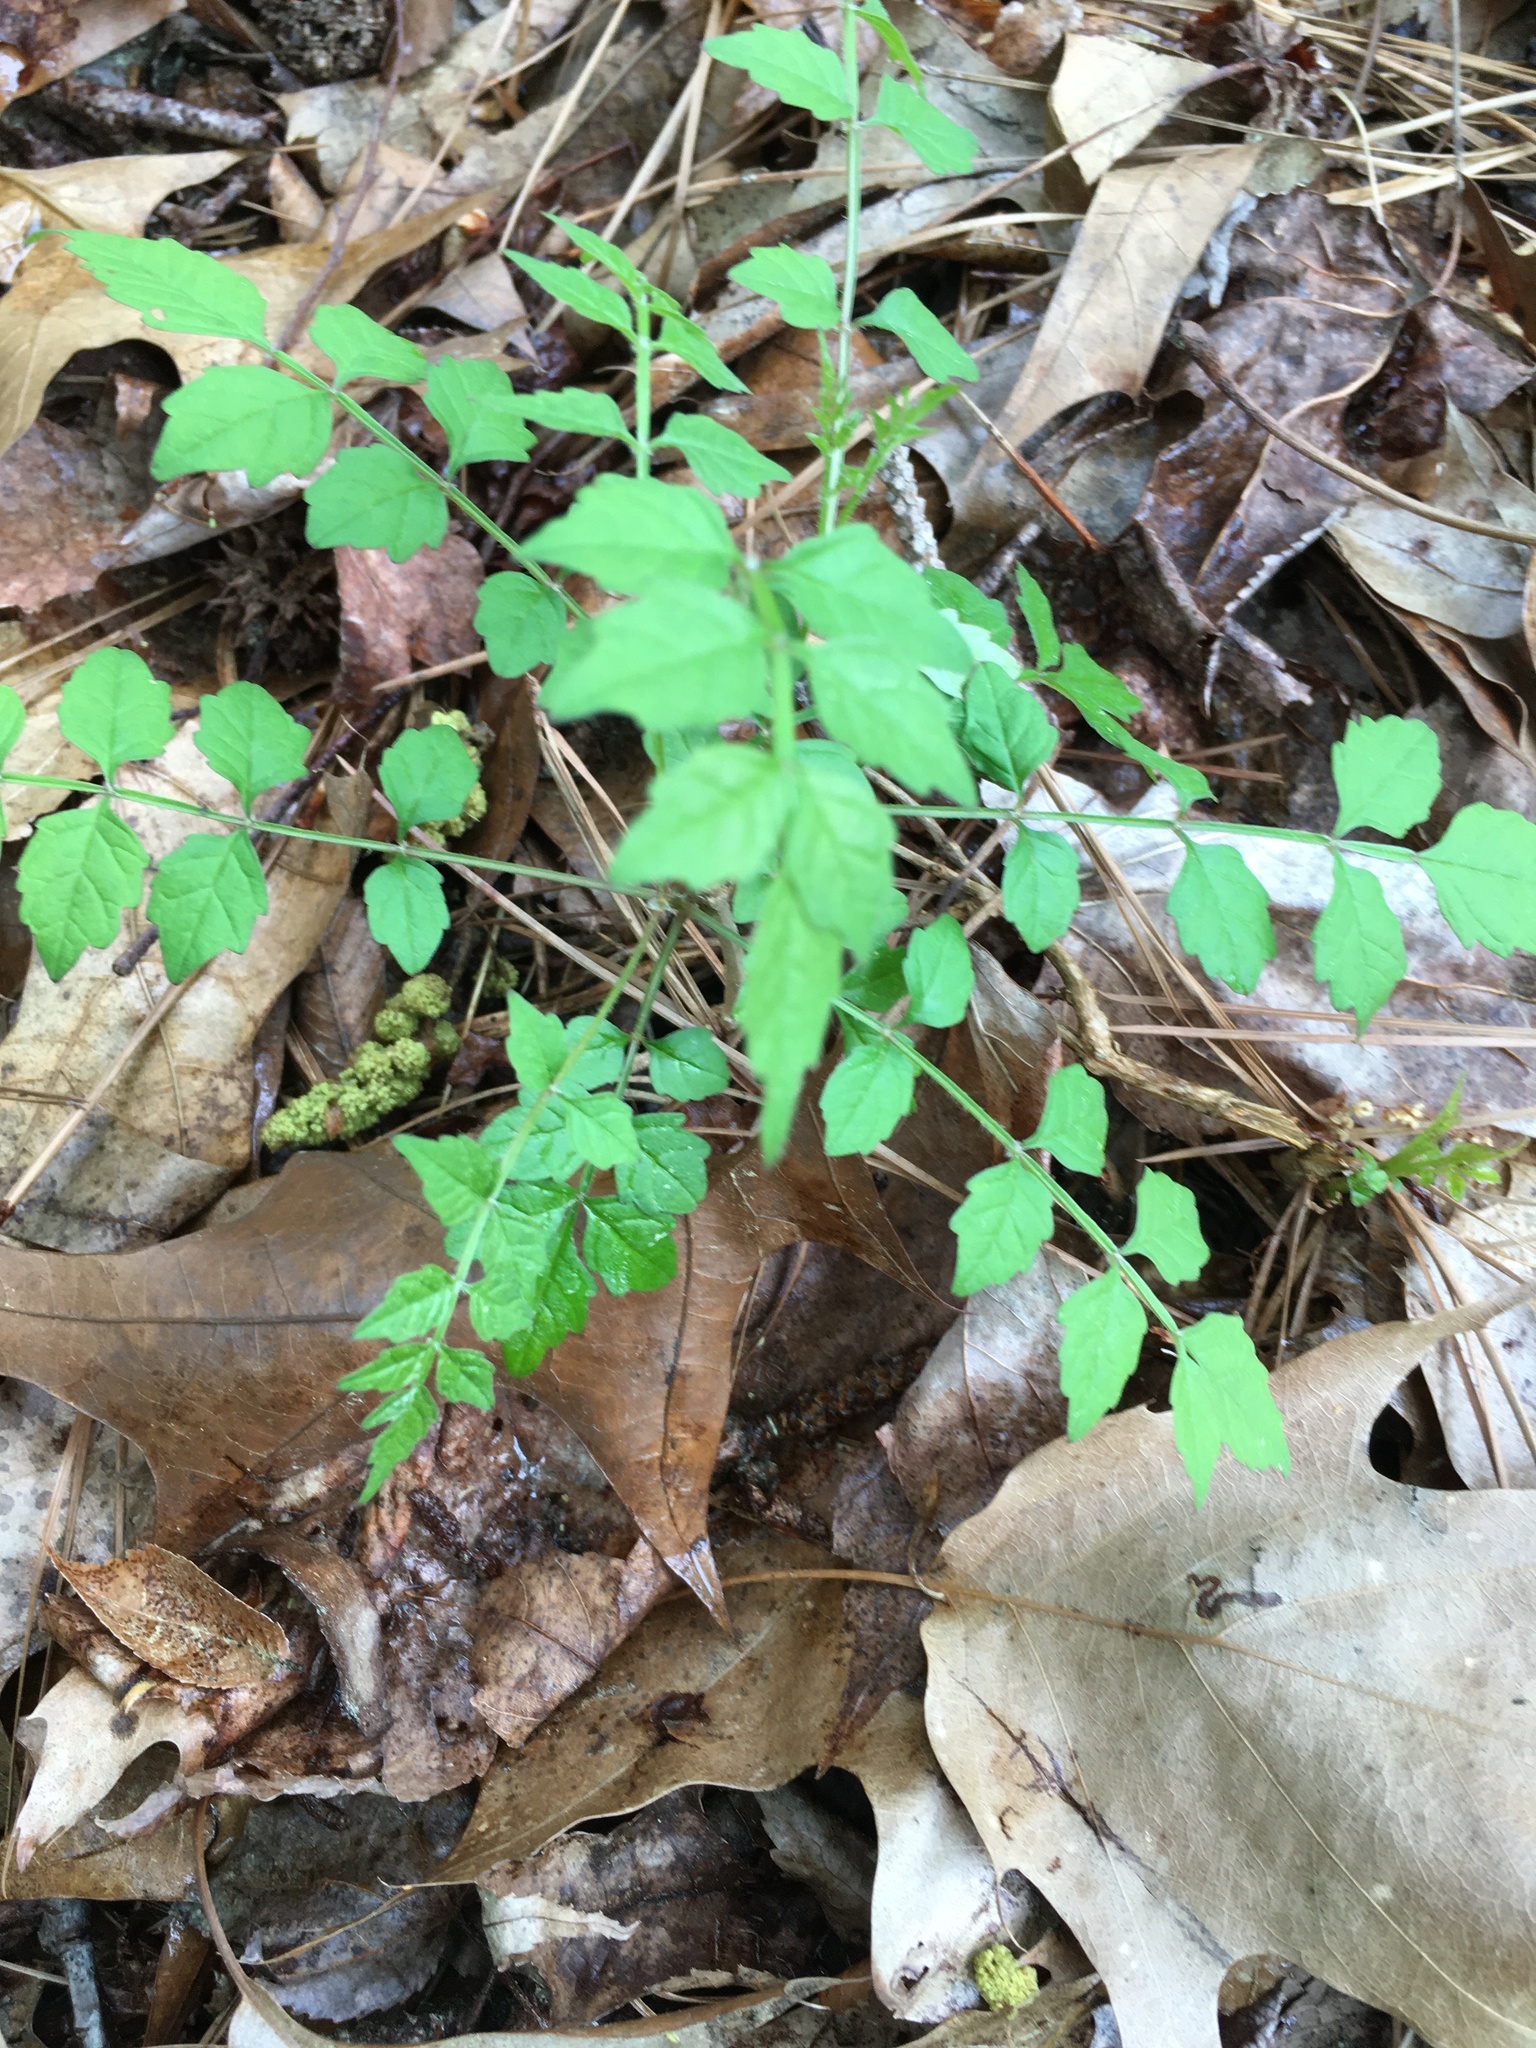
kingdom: Plantae
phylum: Tracheophyta
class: Magnoliopsida
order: Lamiales
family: Bignoniaceae
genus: Campsis
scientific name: Campsis radicans
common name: Trumpet-creeper
